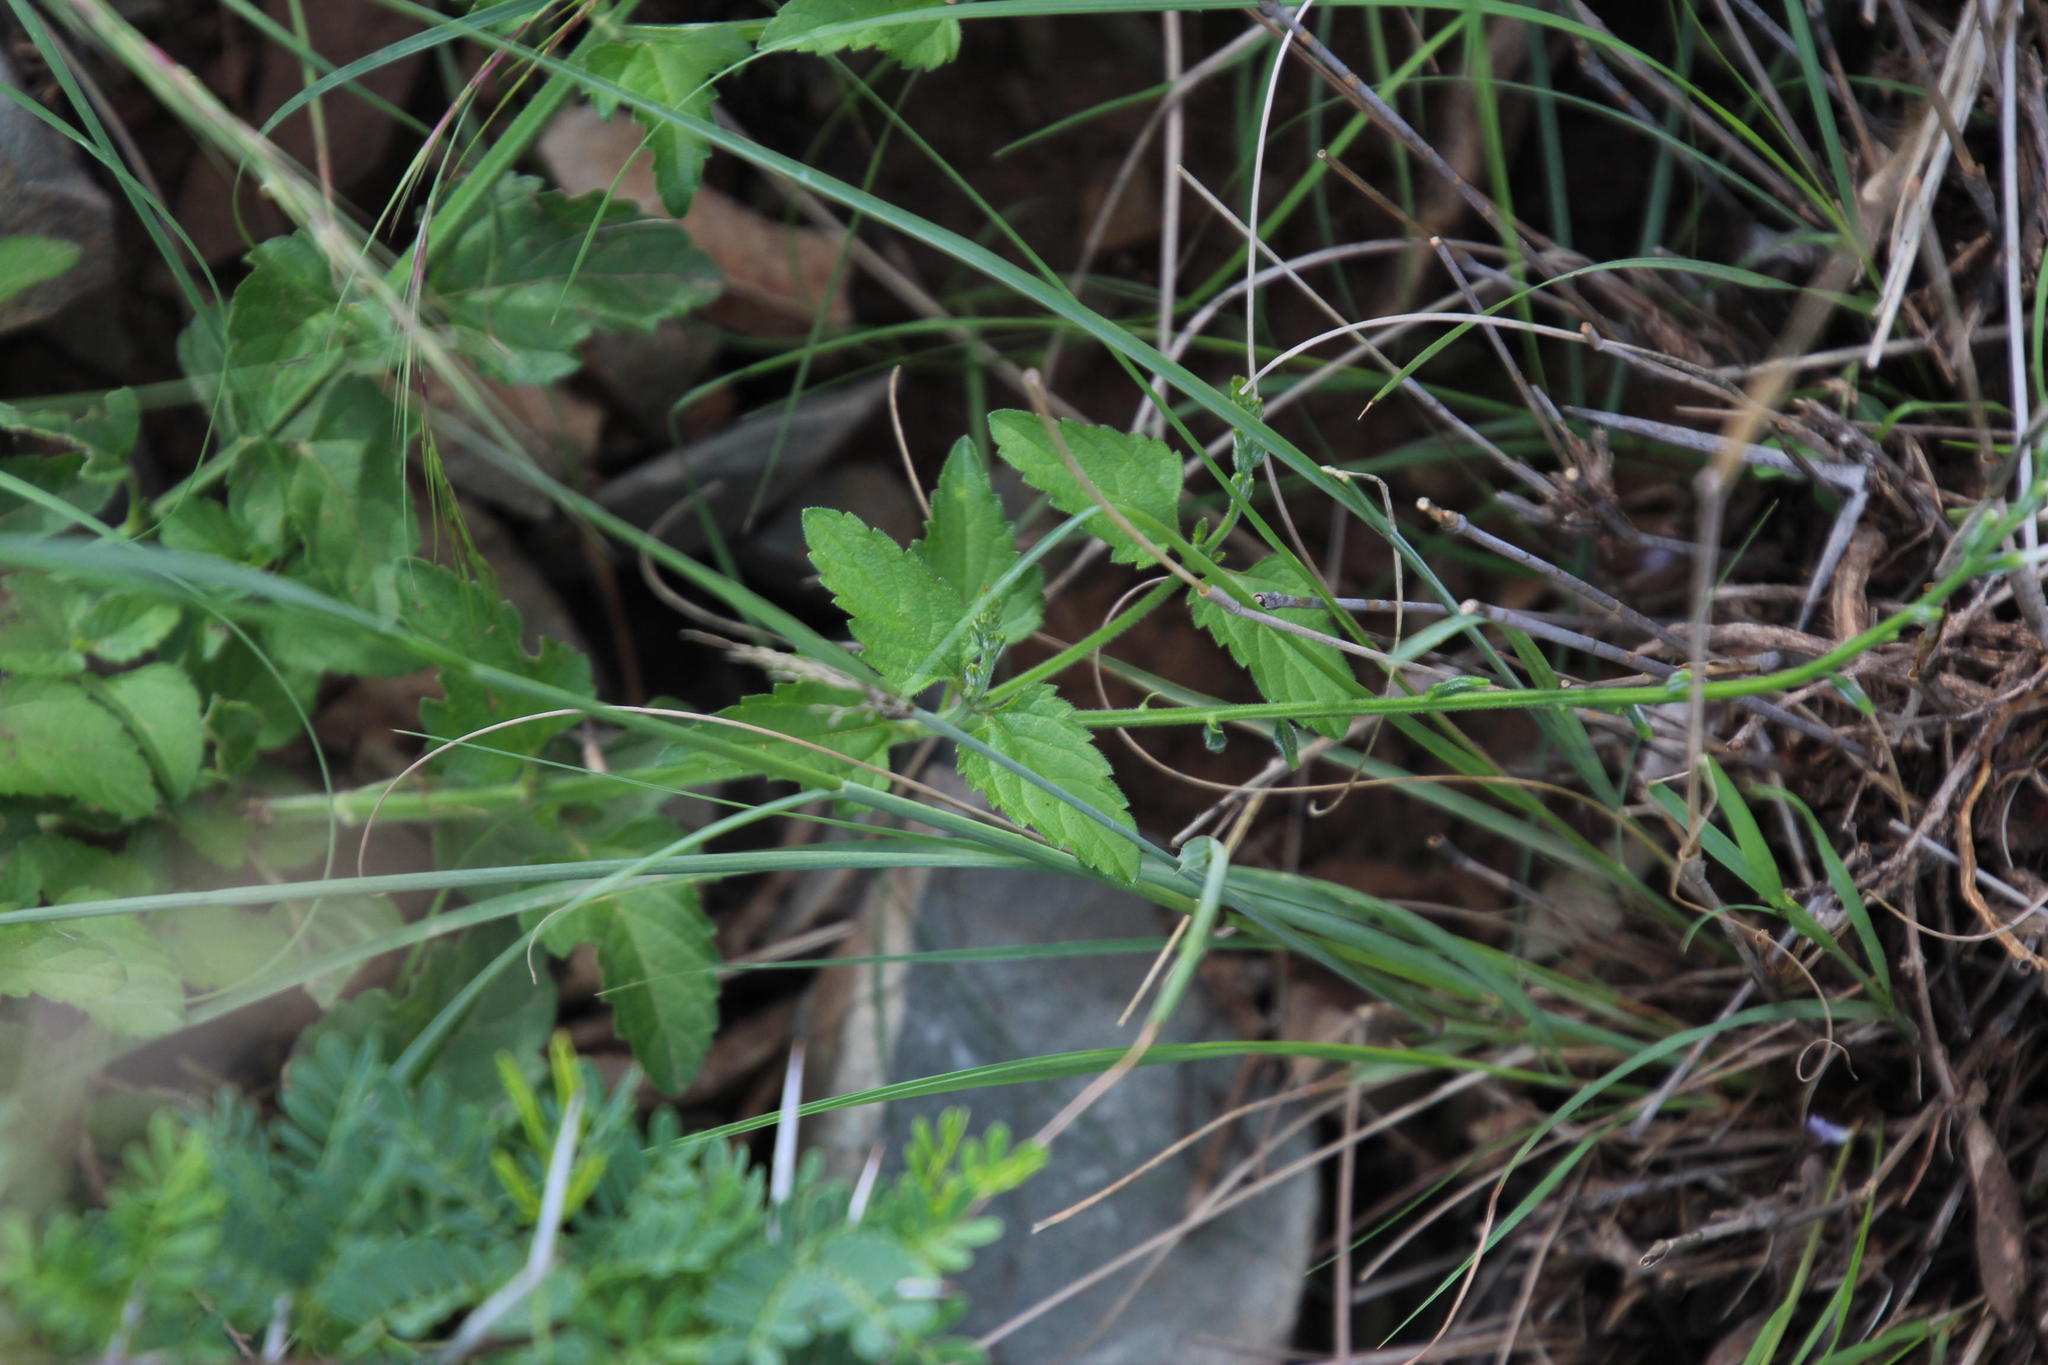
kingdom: Plantae
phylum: Tracheophyta
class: Magnoliopsida
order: Lamiales
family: Verbenaceae
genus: Priva
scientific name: Priva adhaerens
